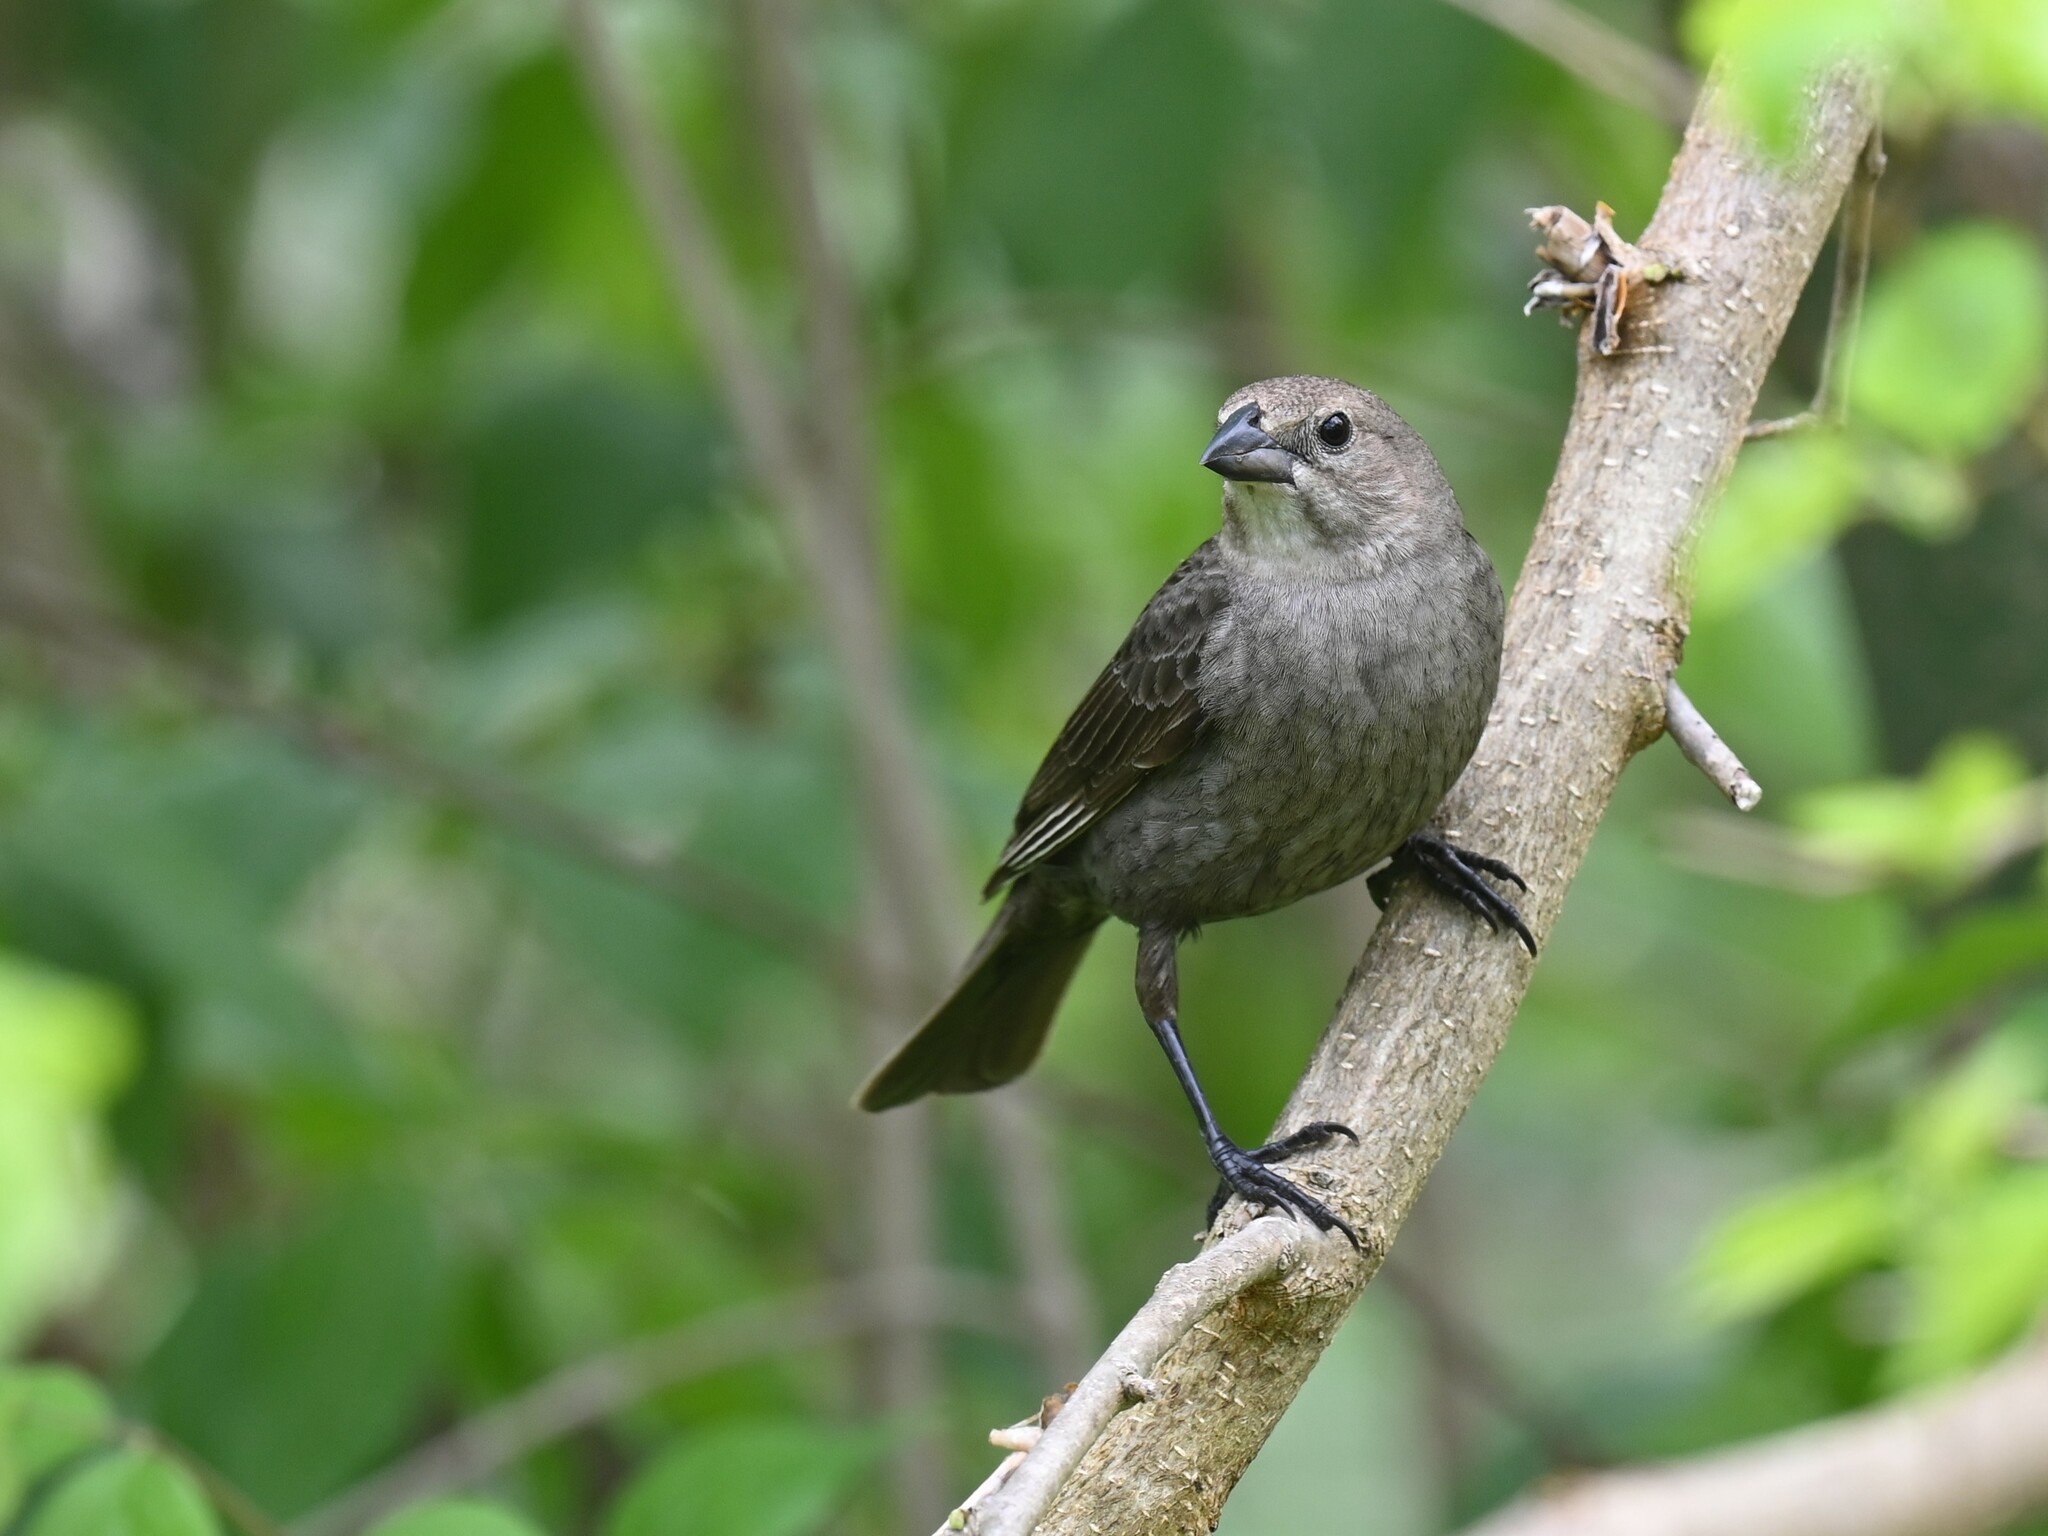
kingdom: Animalia
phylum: Chordata
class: Aves
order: Passeriformes
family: Icteridae
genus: Molothrus
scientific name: Molothrus ater
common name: Brown-headed cowbird
